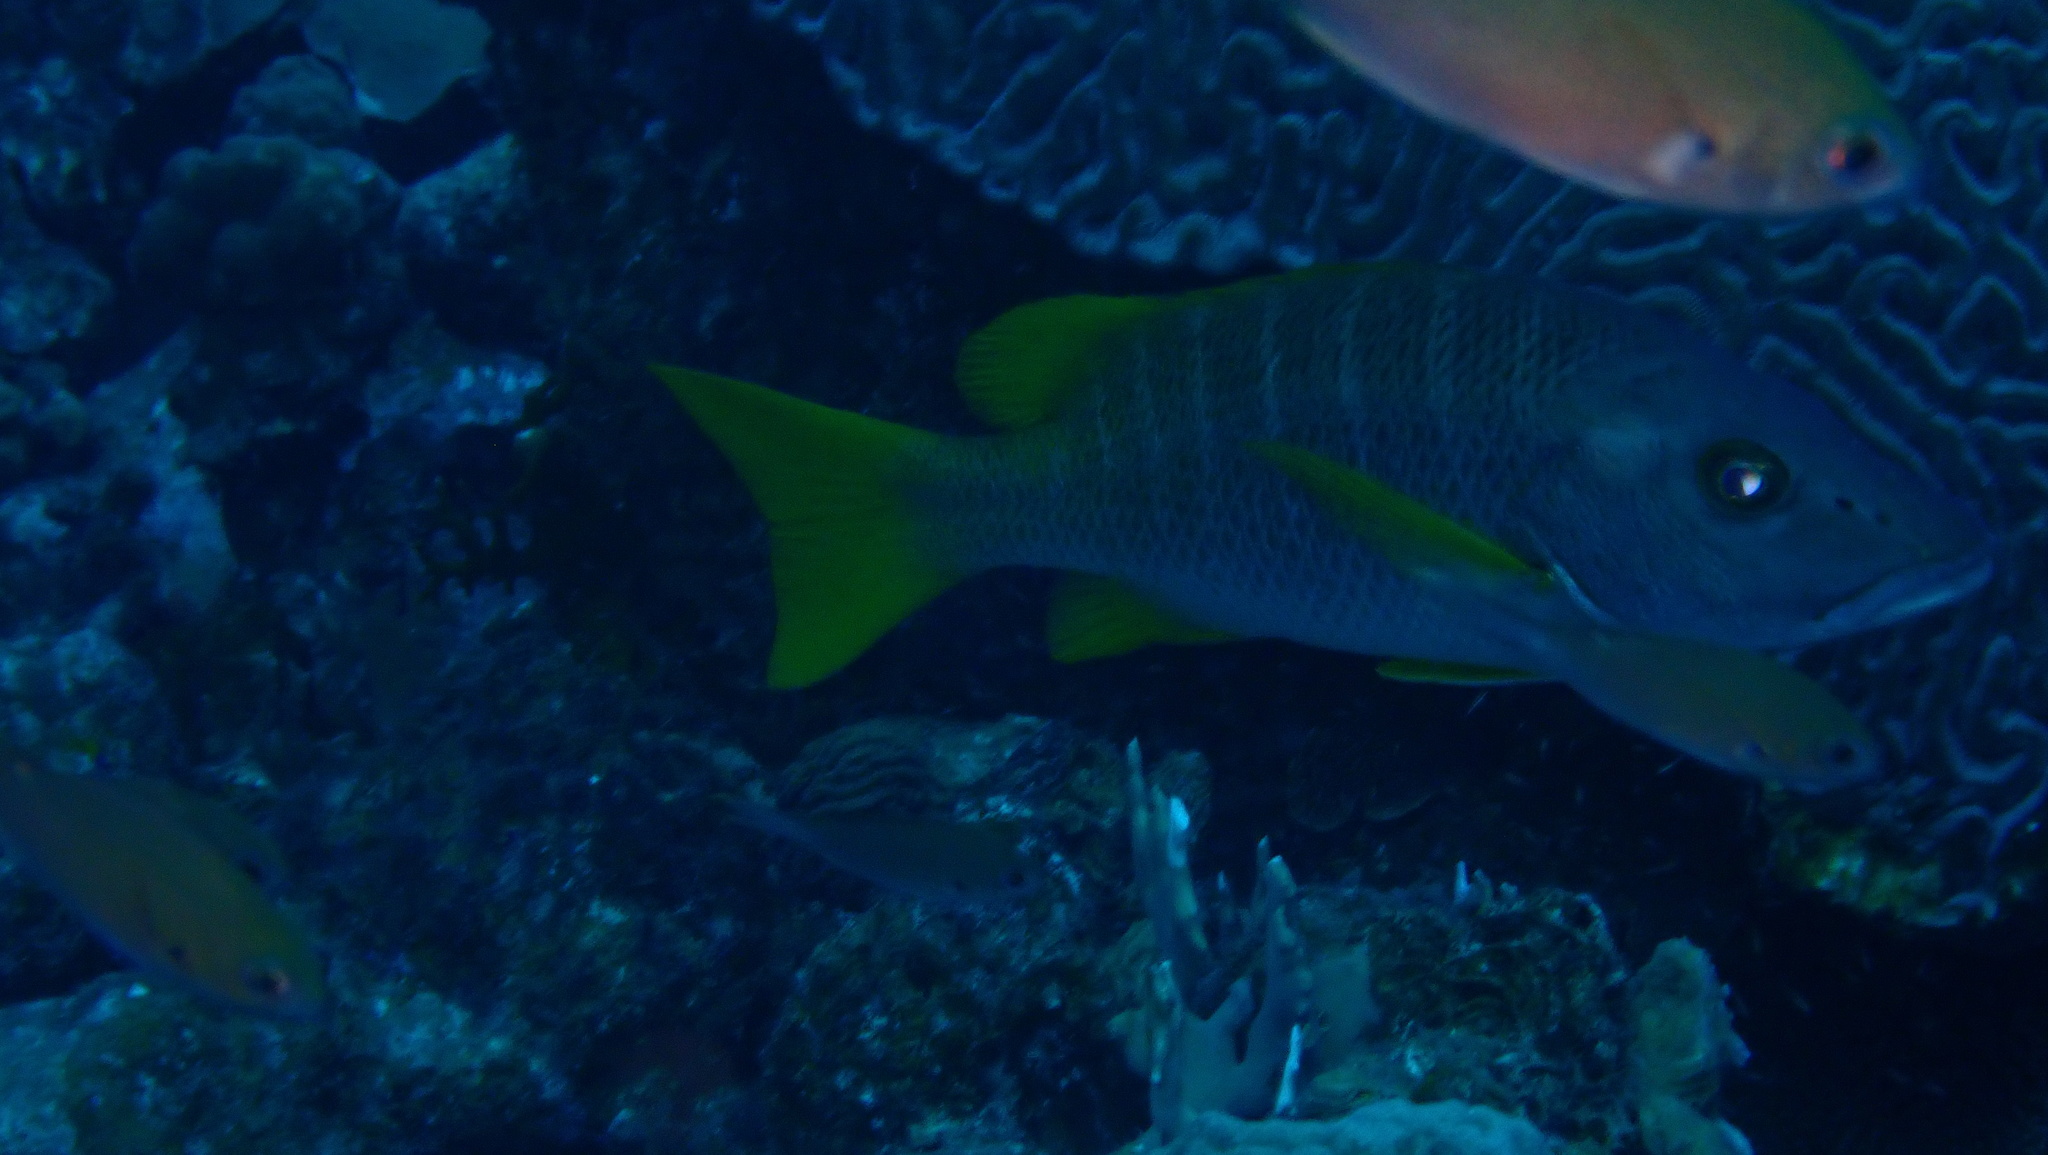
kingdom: Animalia
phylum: Chordata
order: Perciformes
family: Lutjanidae
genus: Lutjanus
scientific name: Lutjanus apodus
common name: Schoolmaster
